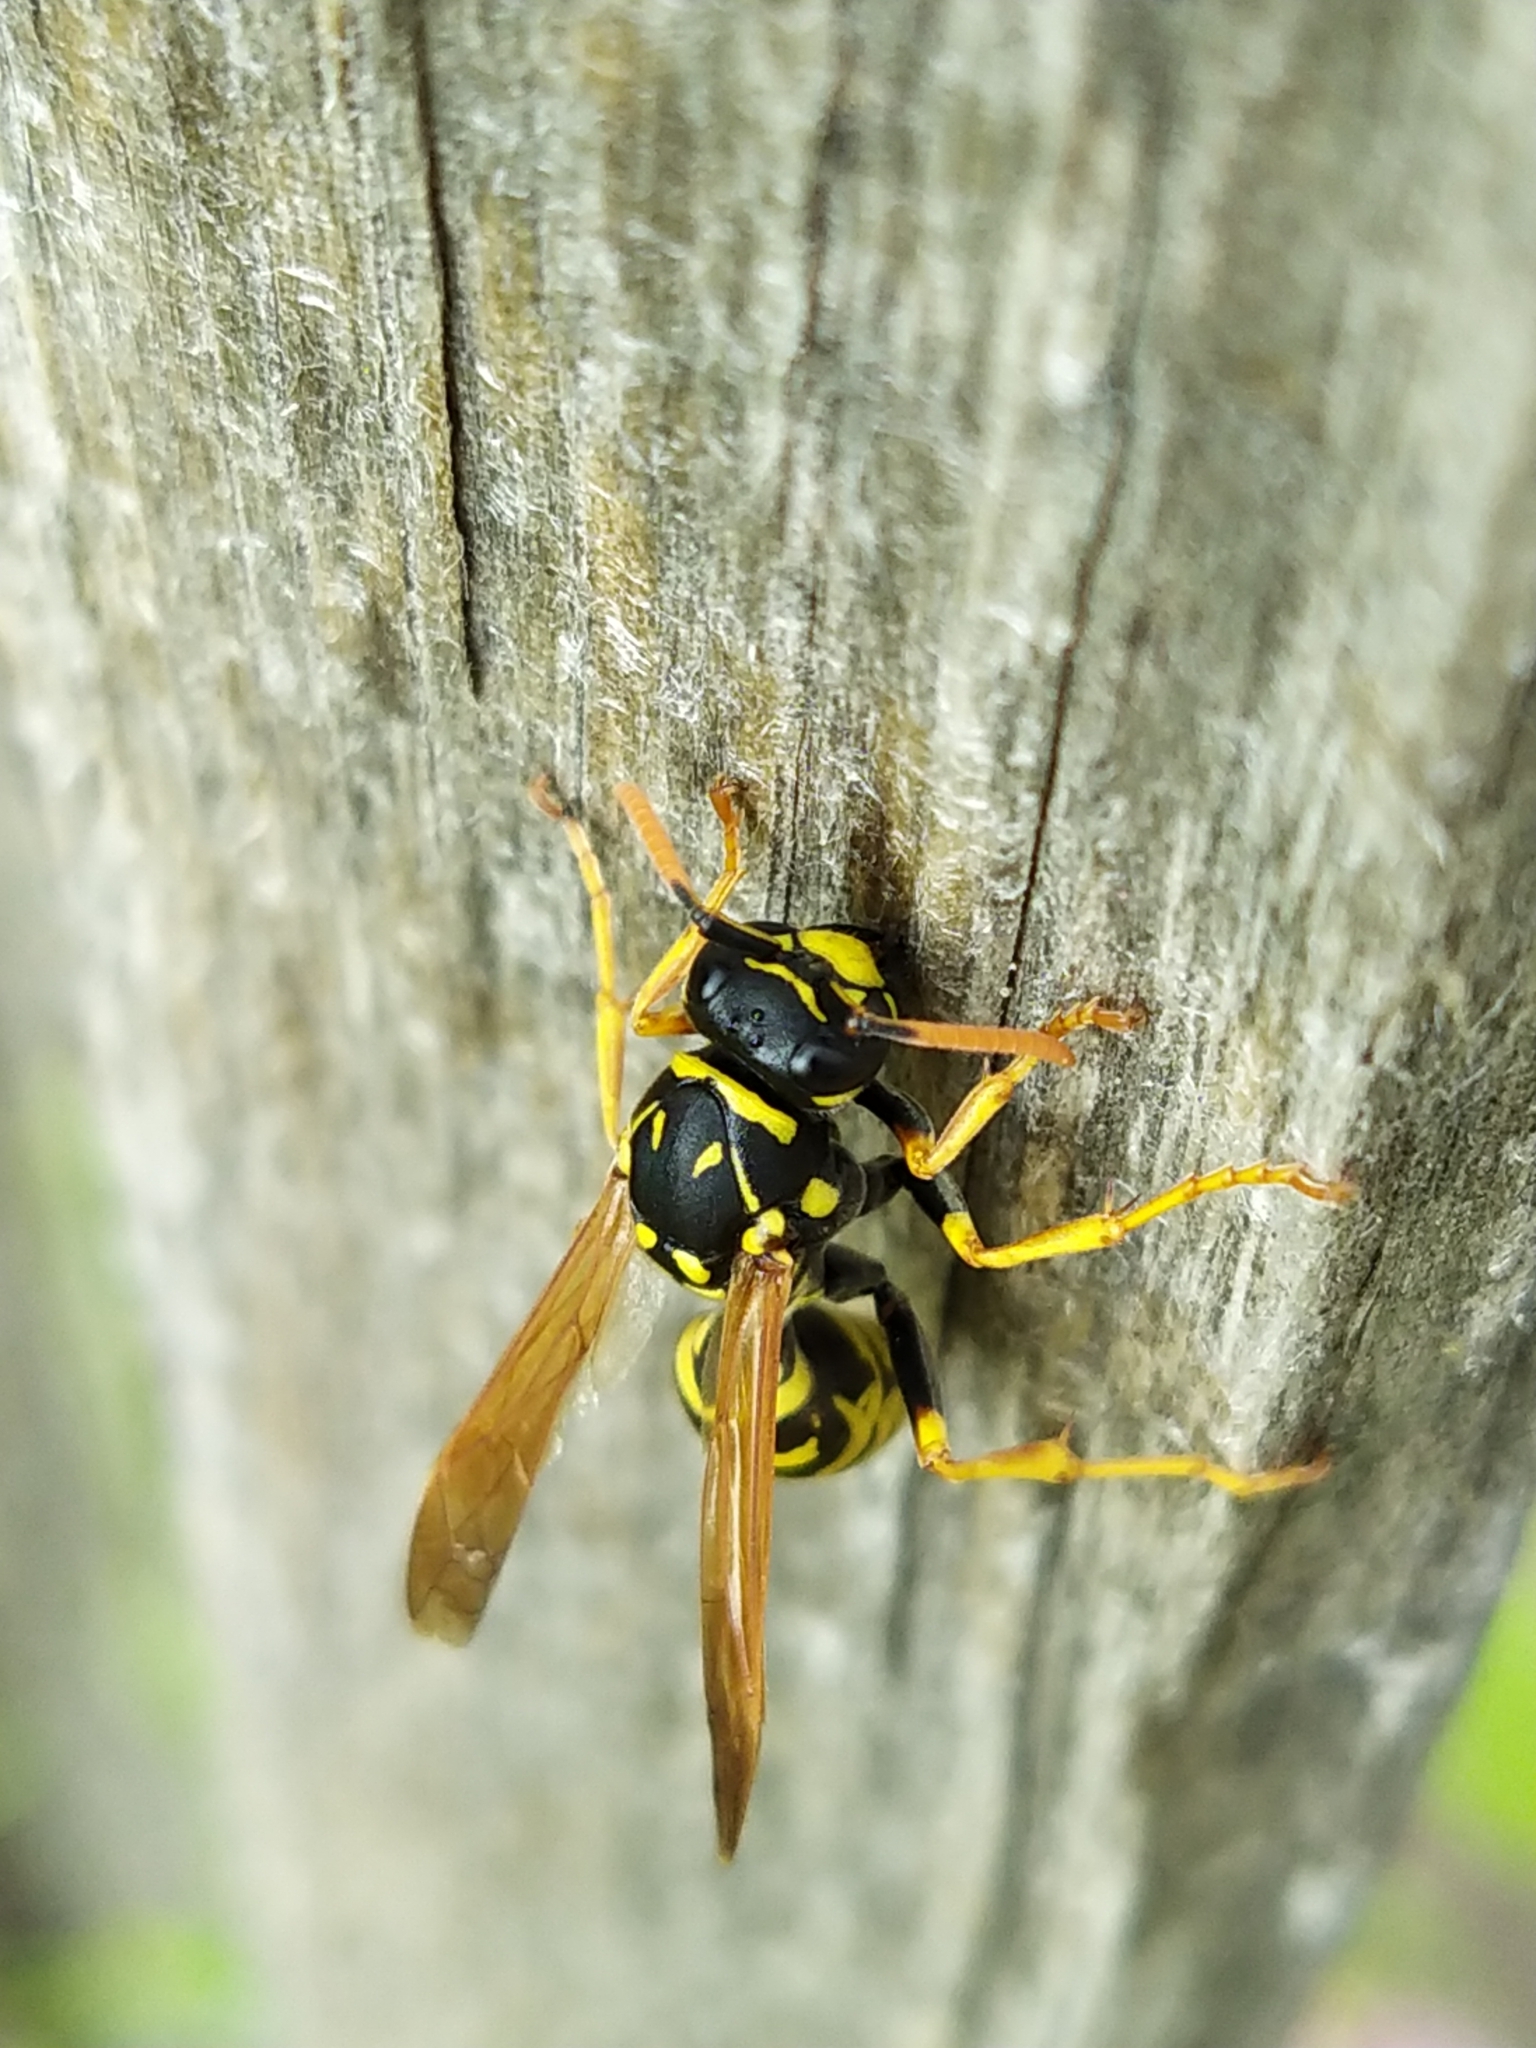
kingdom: Animalia
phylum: Arthropoda
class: Insecta
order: Hymenoptera
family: Eumenidae
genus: Polistes
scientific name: Polistes dominula
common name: Paper wasp
